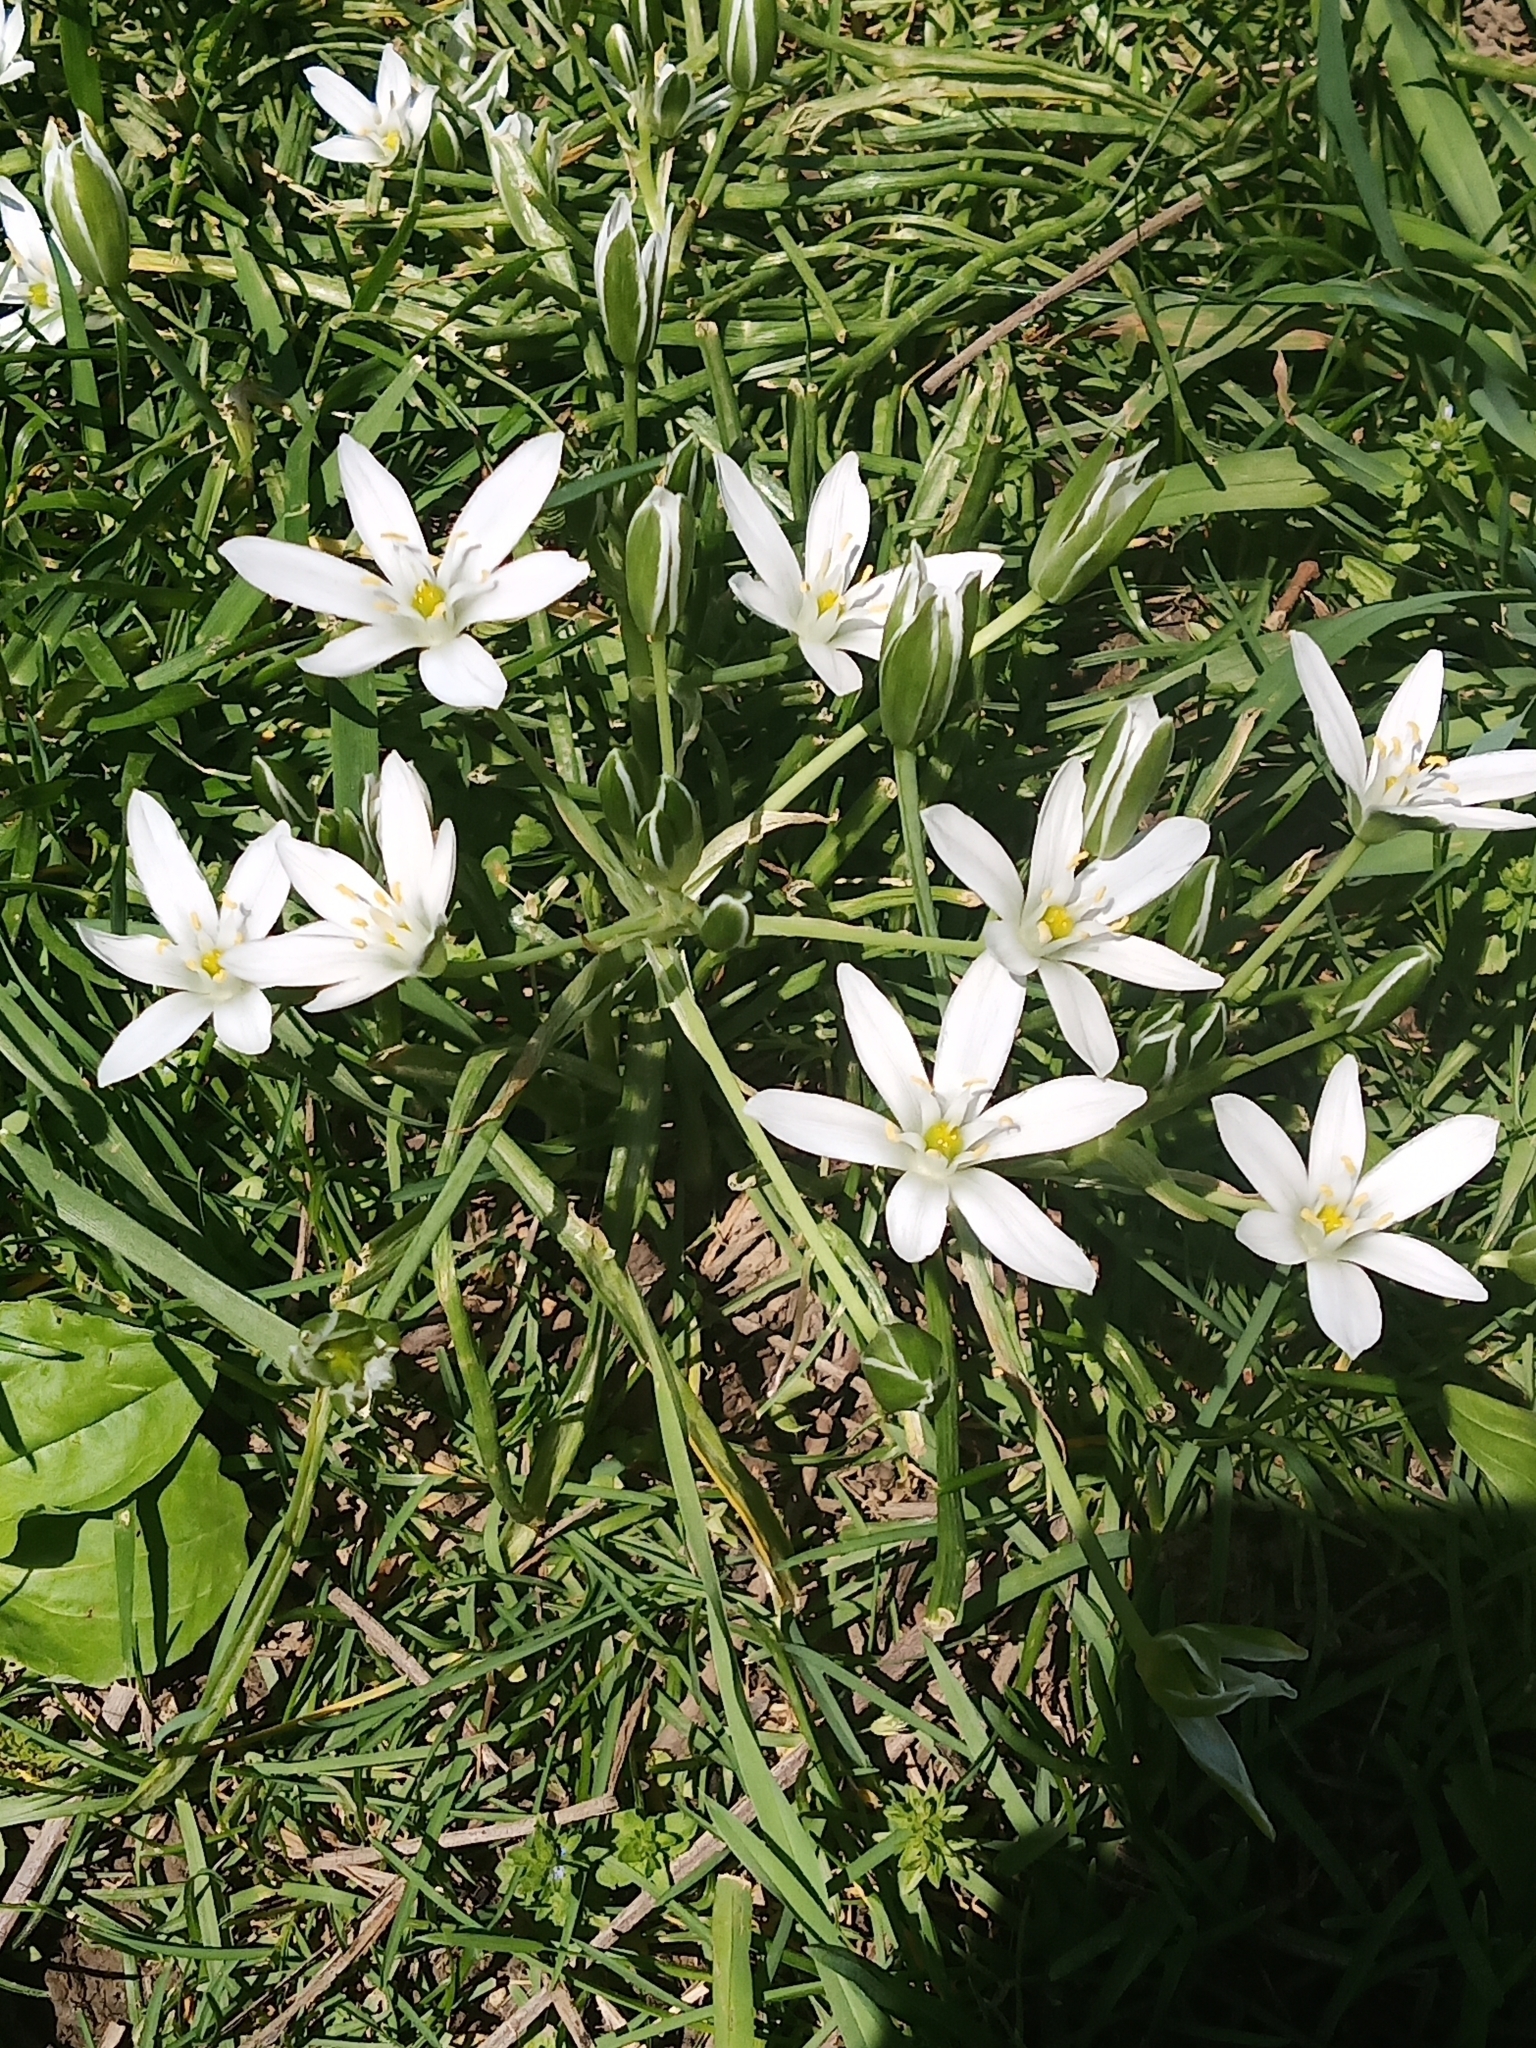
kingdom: Plantae
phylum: Tracheophyta
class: Liliopsida
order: Asparagales
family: Asparagaceae
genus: Ornithogalum
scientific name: Ornithogalum umbellatum
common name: Garden star-of-bethlehem
